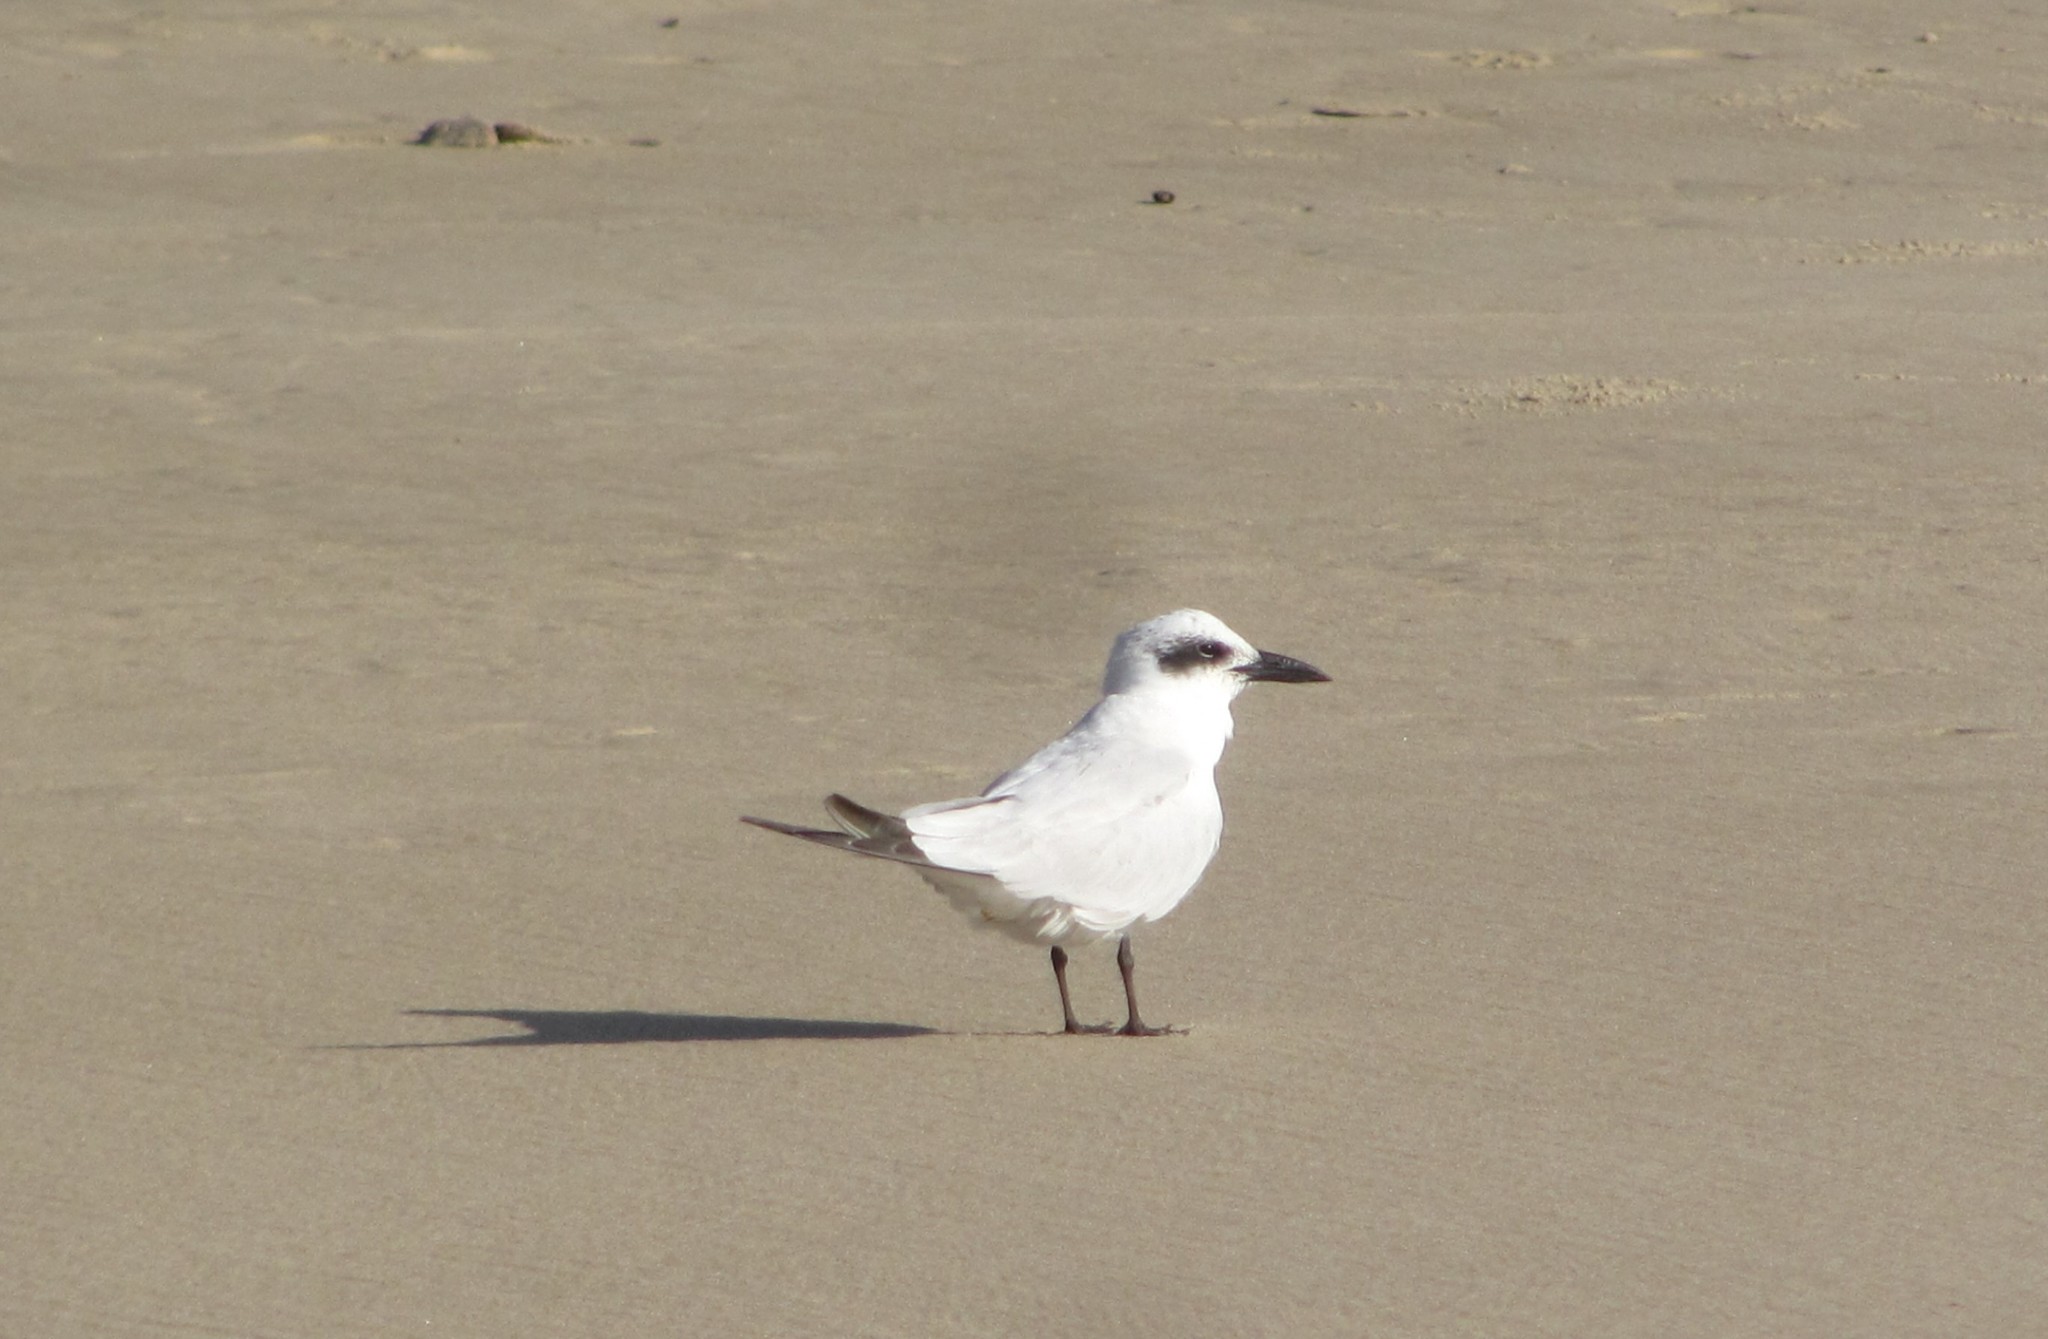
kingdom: Animalia
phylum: Chordata
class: Aves
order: Charadriiformes
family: Laridae
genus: Gelochelidon
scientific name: Gelochelidon macrotarsa
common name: Australian tern
